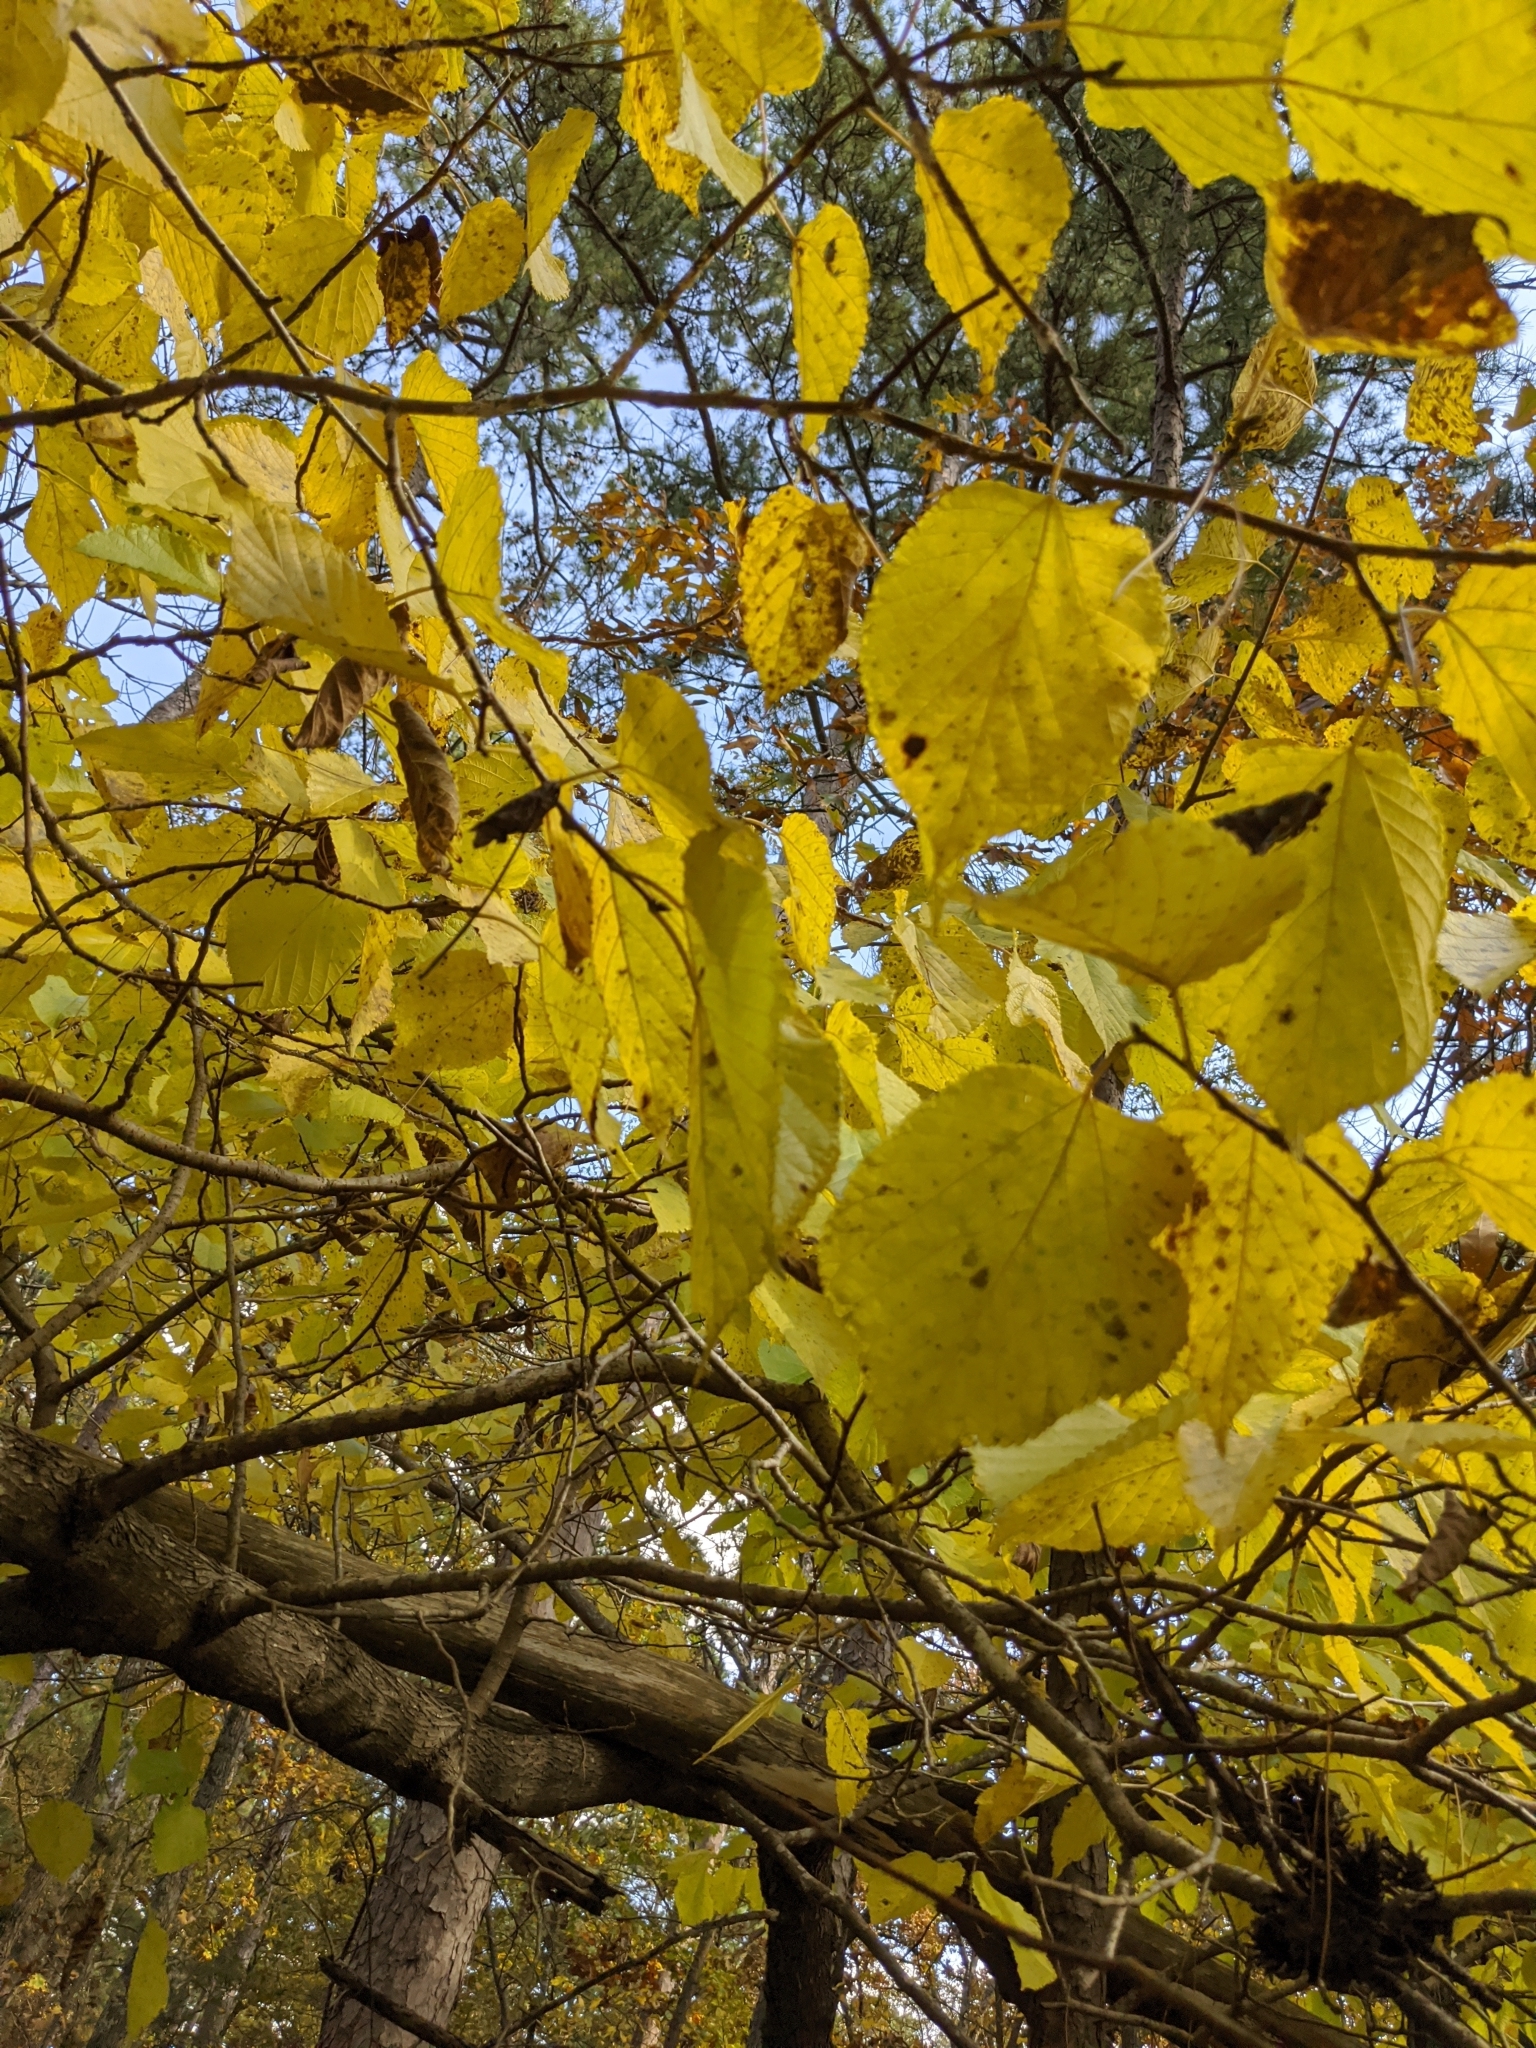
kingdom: Plantae
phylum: Tracheophyta
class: Magnoliopsida
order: Malvales
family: Malvaceae
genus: Tilia
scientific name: Tilia americana
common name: Basswood
